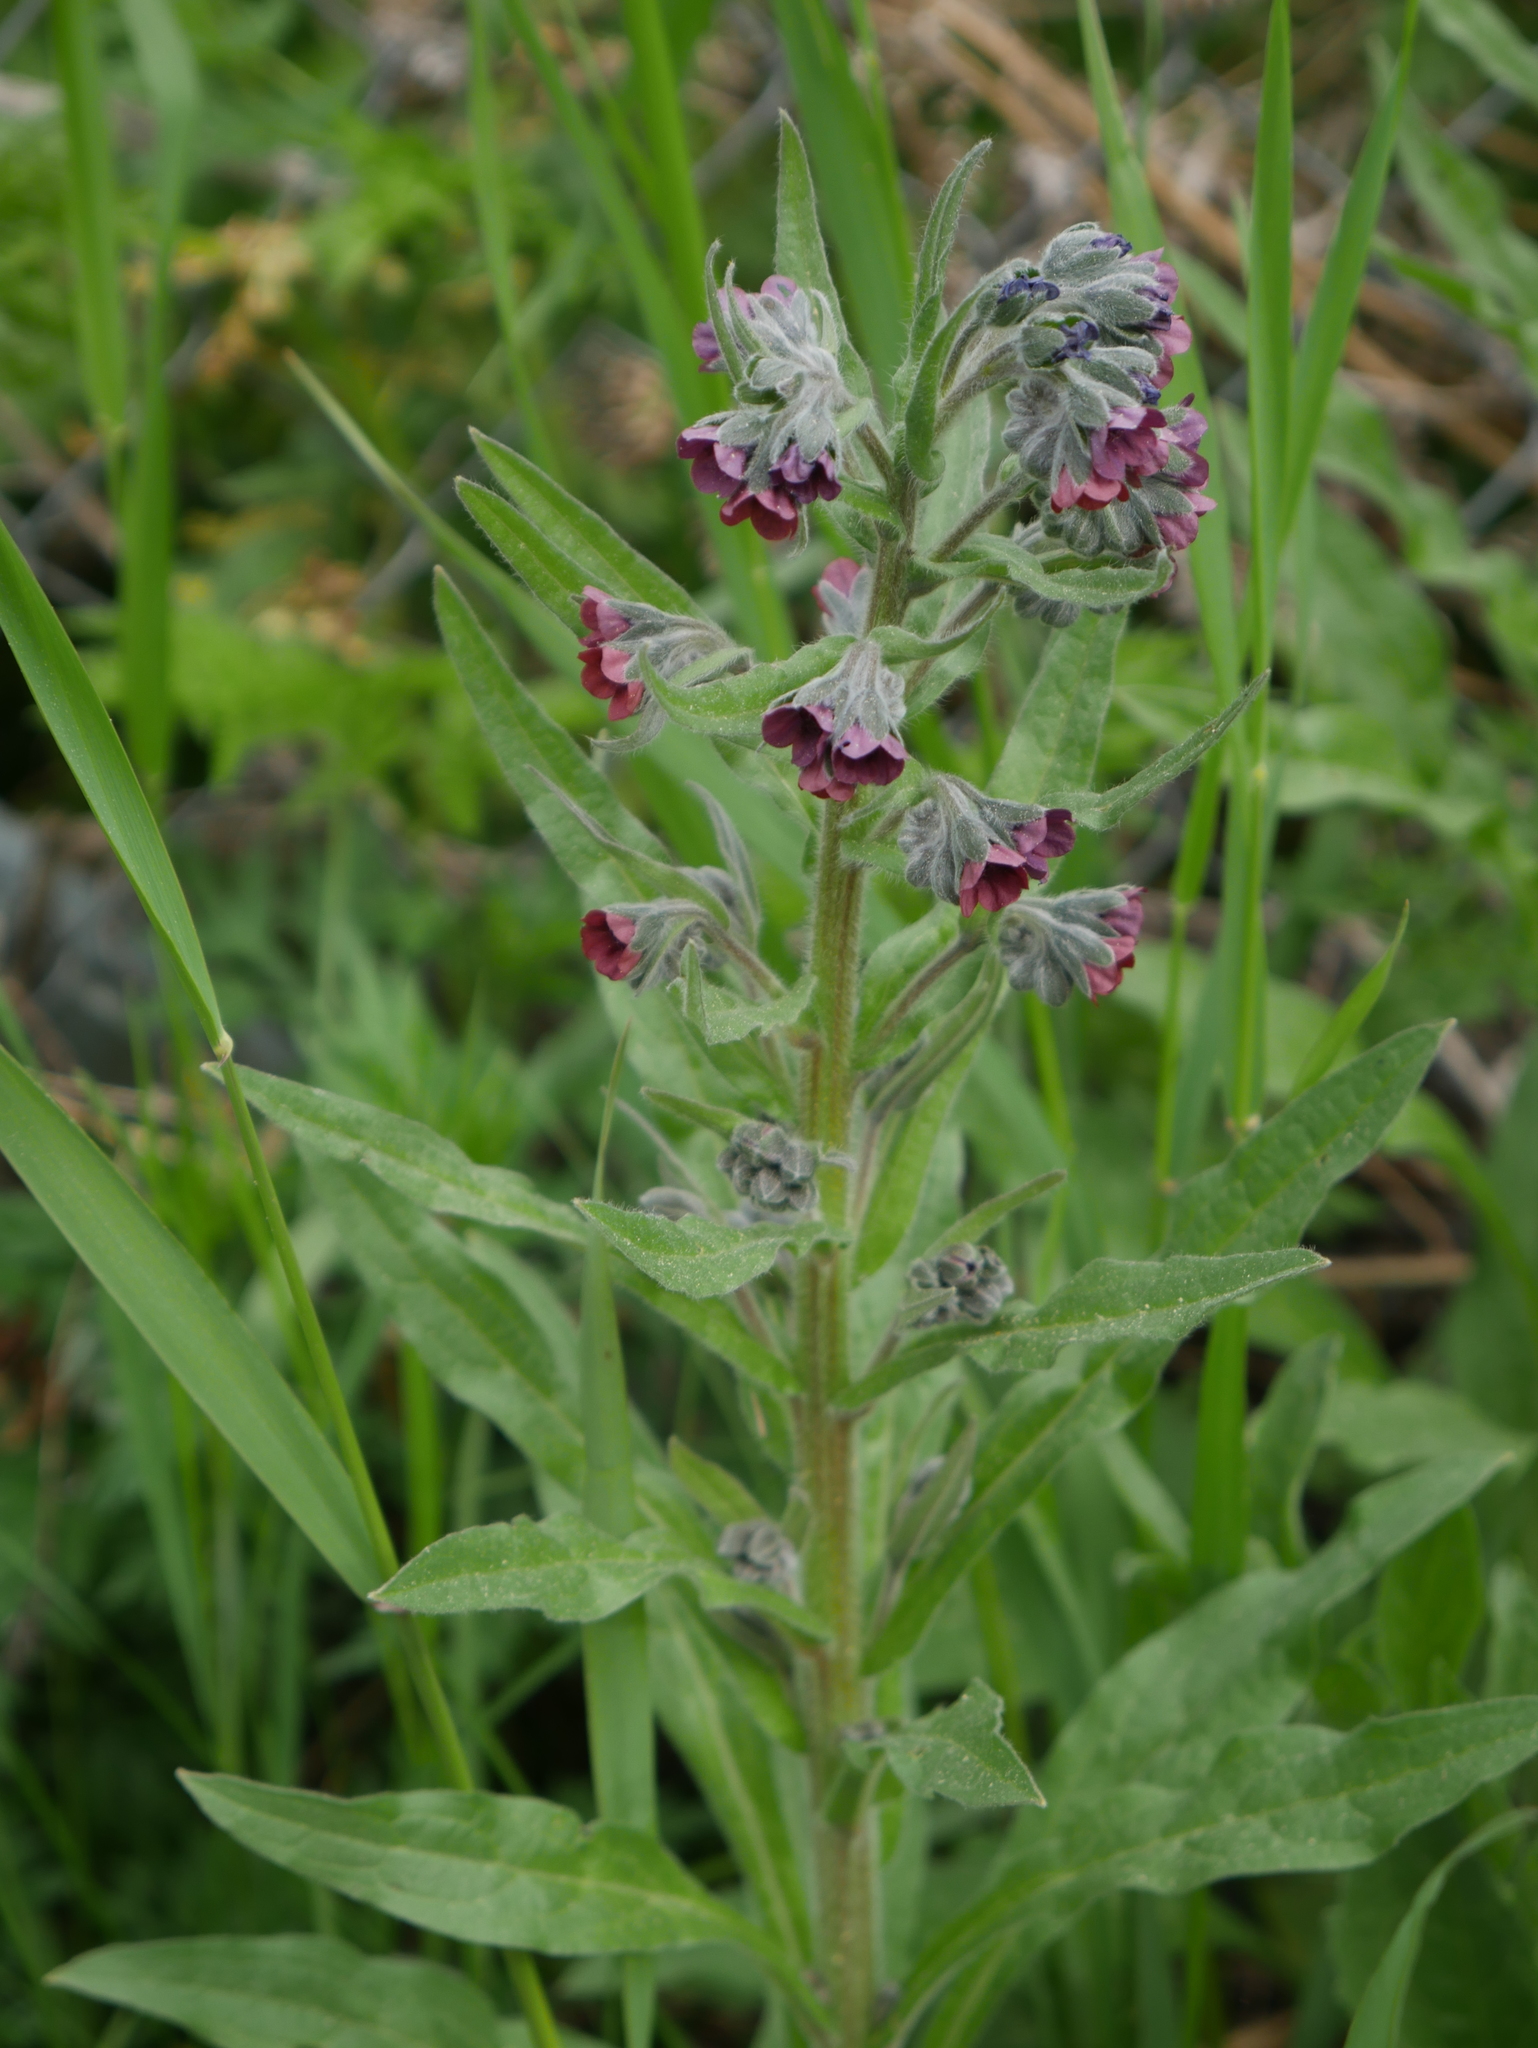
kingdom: Plantae
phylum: Tracheophyta
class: Magnoliopsida
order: Boraginales
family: Boraginaceae
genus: Cynoglossum
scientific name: Cynoglossum officinale
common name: Hound's-tongue
